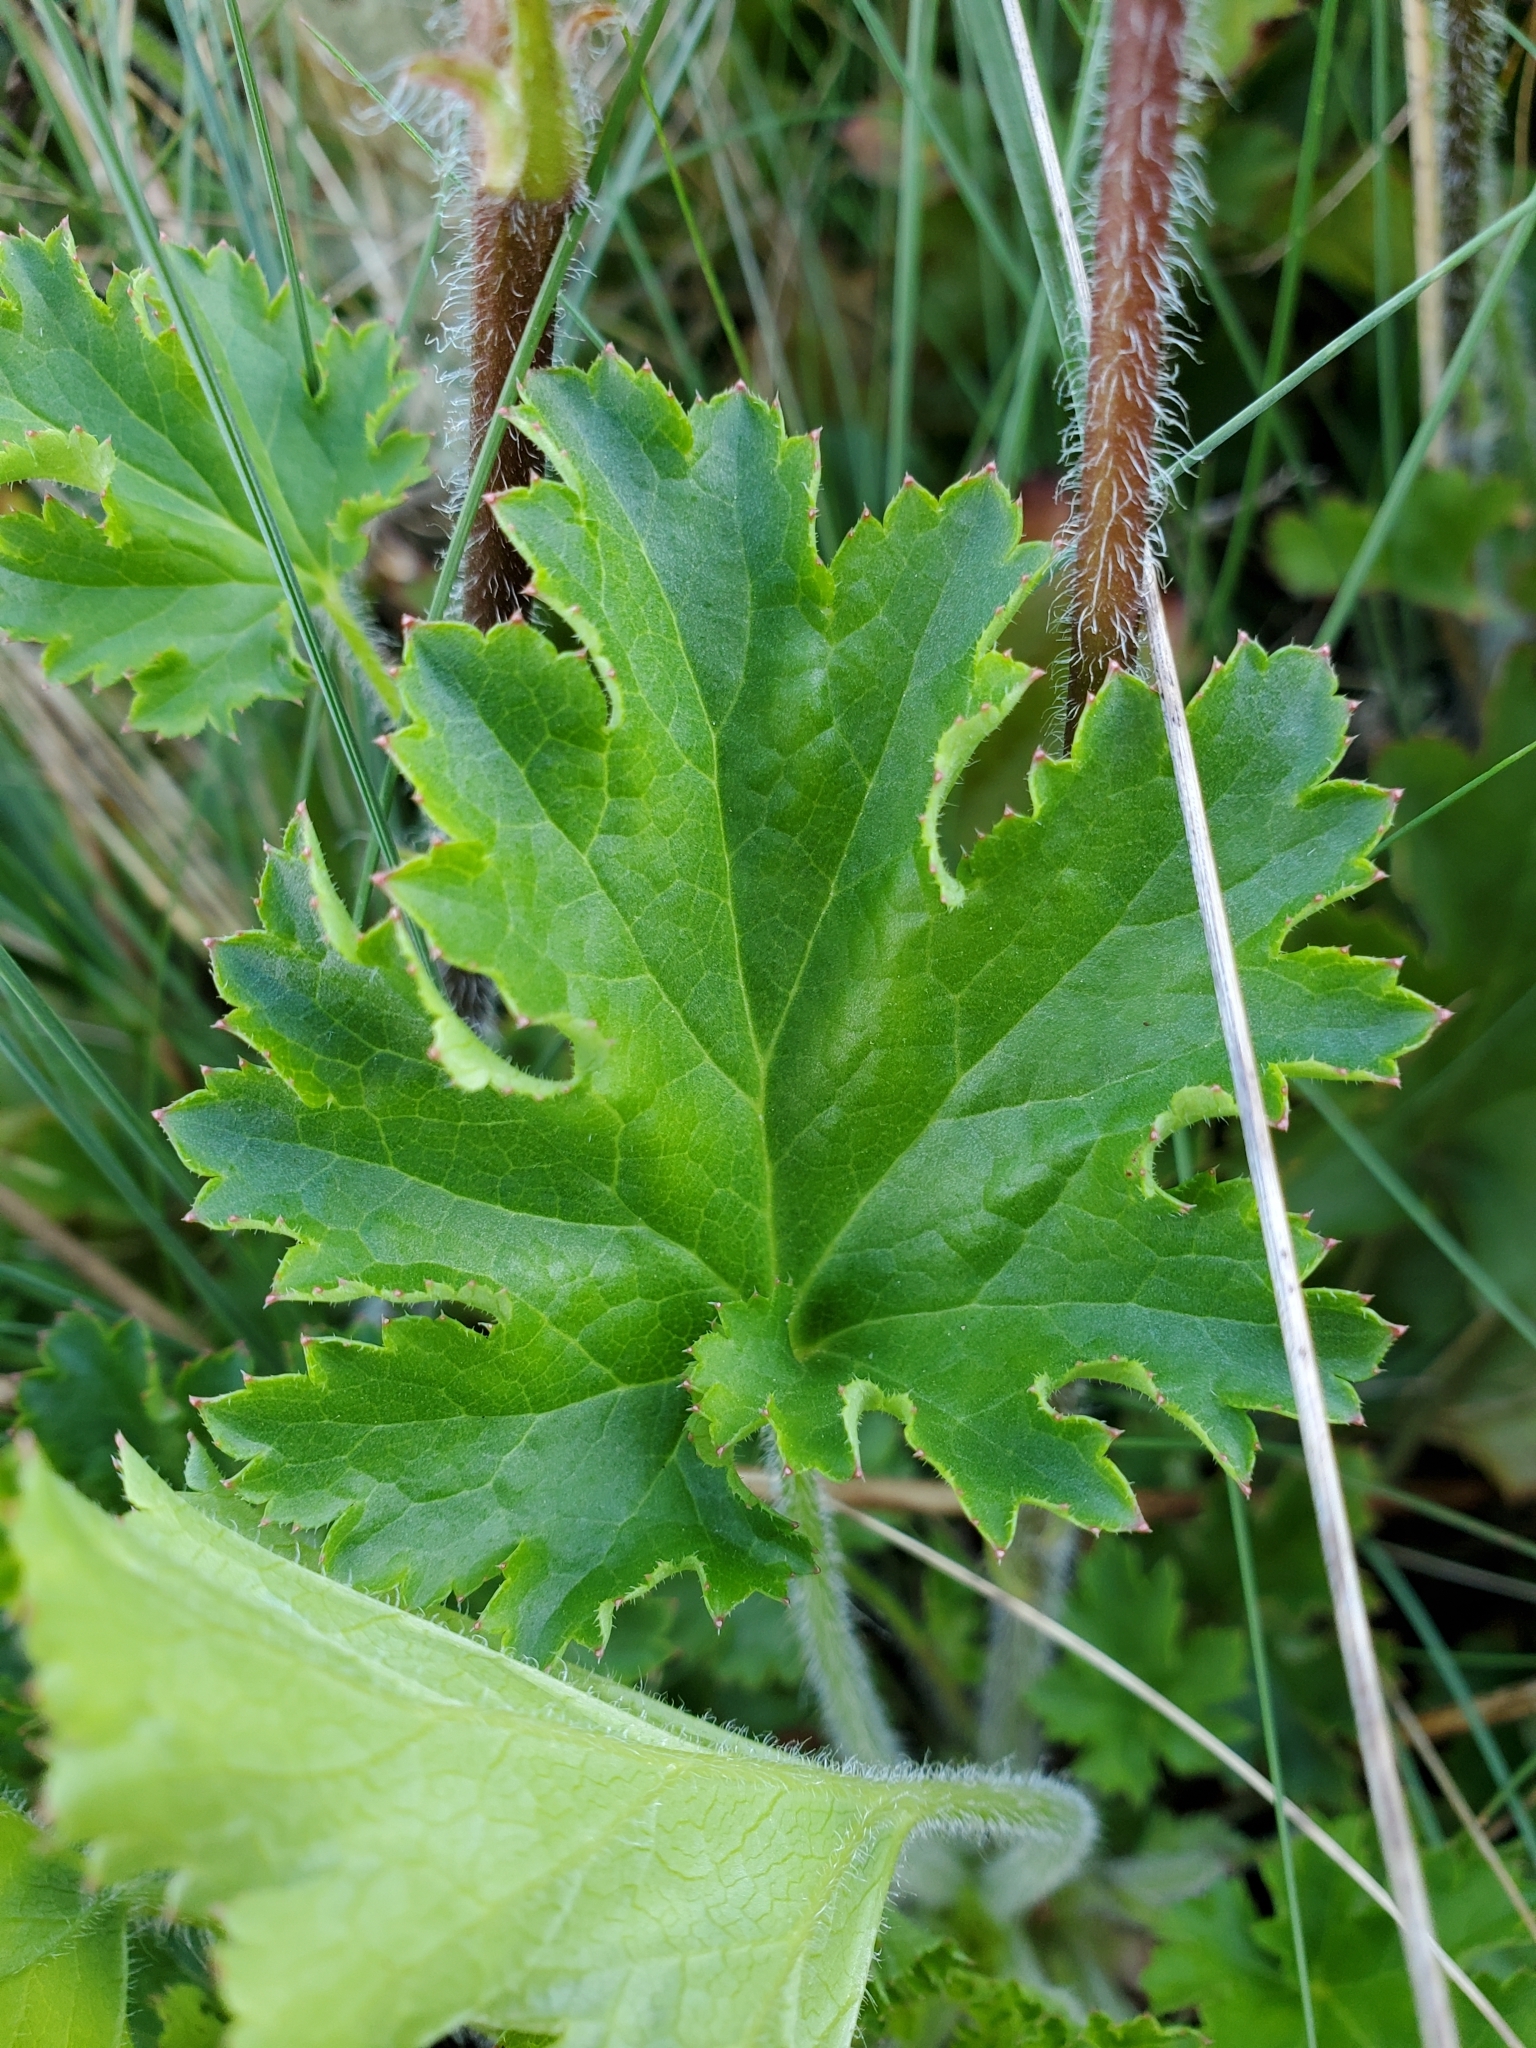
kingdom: Plantae
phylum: Tracheophyta
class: Magnoliopsida
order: Saxifragales
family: Saxifragaceae
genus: Heuchera
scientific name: Heuchera micrantha
